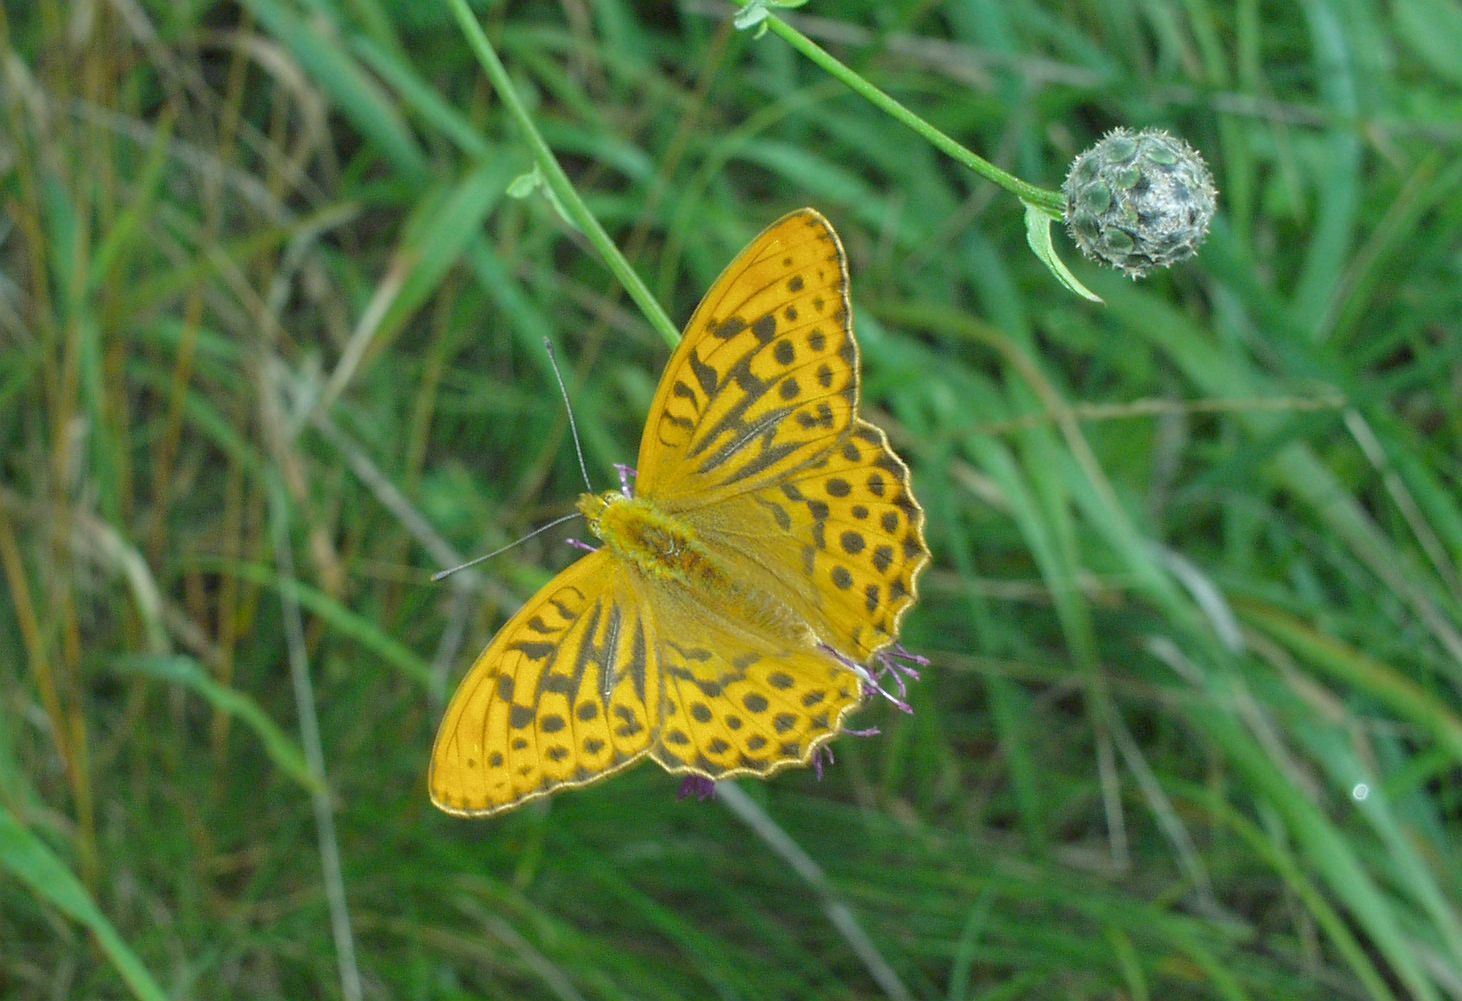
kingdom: Animalia
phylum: Arthropoda
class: Insecta
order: Lepidoptera
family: Nymphalidae
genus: Argynnis
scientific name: Argynnis paphia
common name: Silver-washed fritillary
